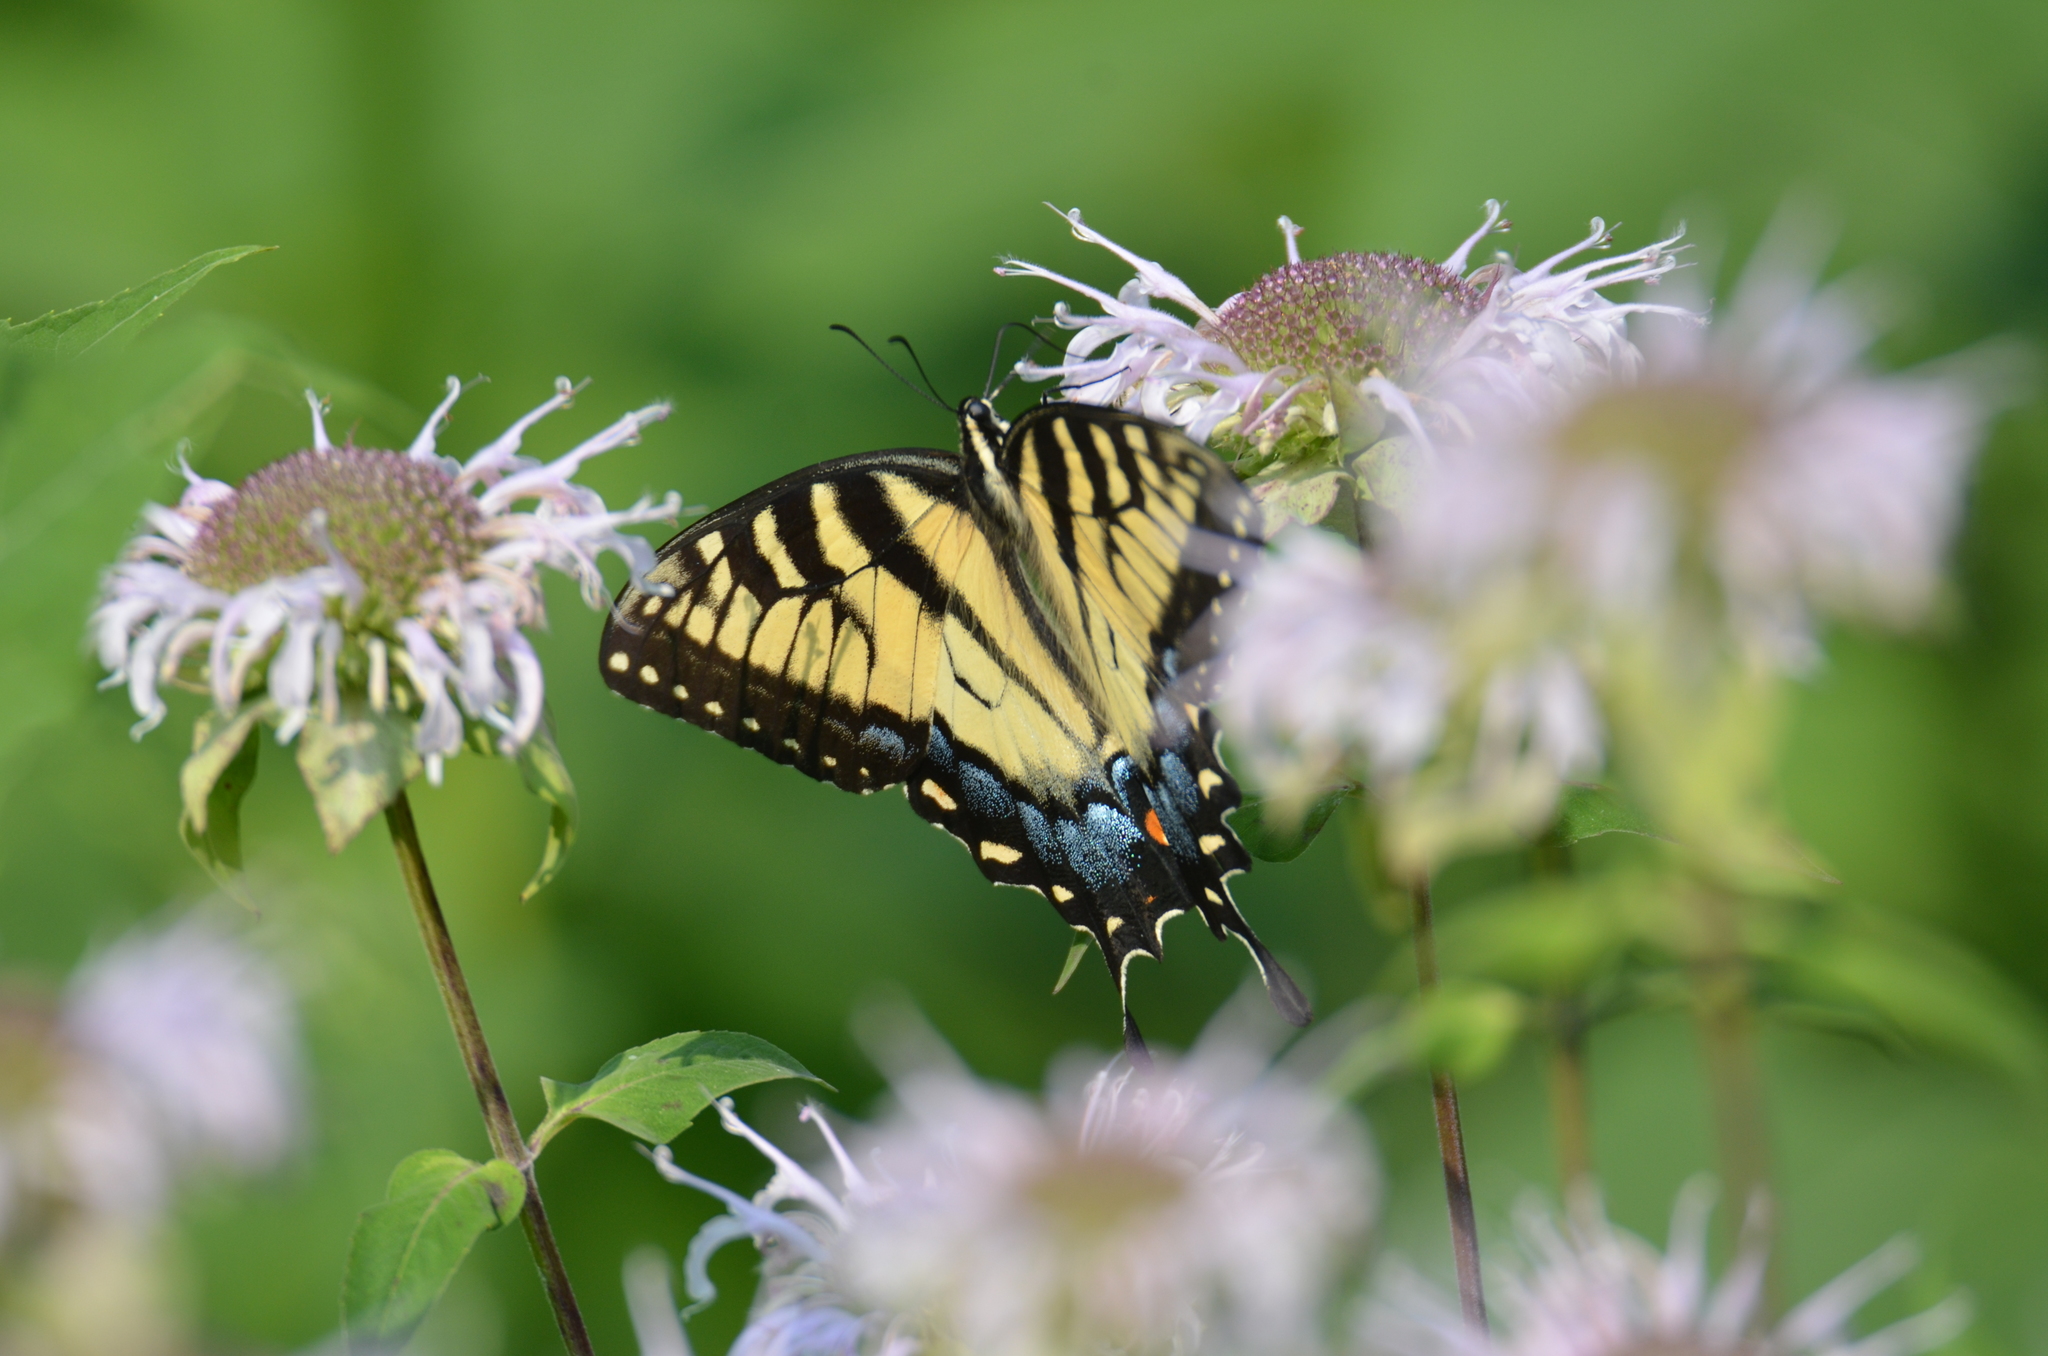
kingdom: Animalia
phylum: Arthropoda
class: Insecta
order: Lepidoptera
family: Papilionidae
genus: Papilio
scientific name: Papilio glaucus
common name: Tiger swallowtail
